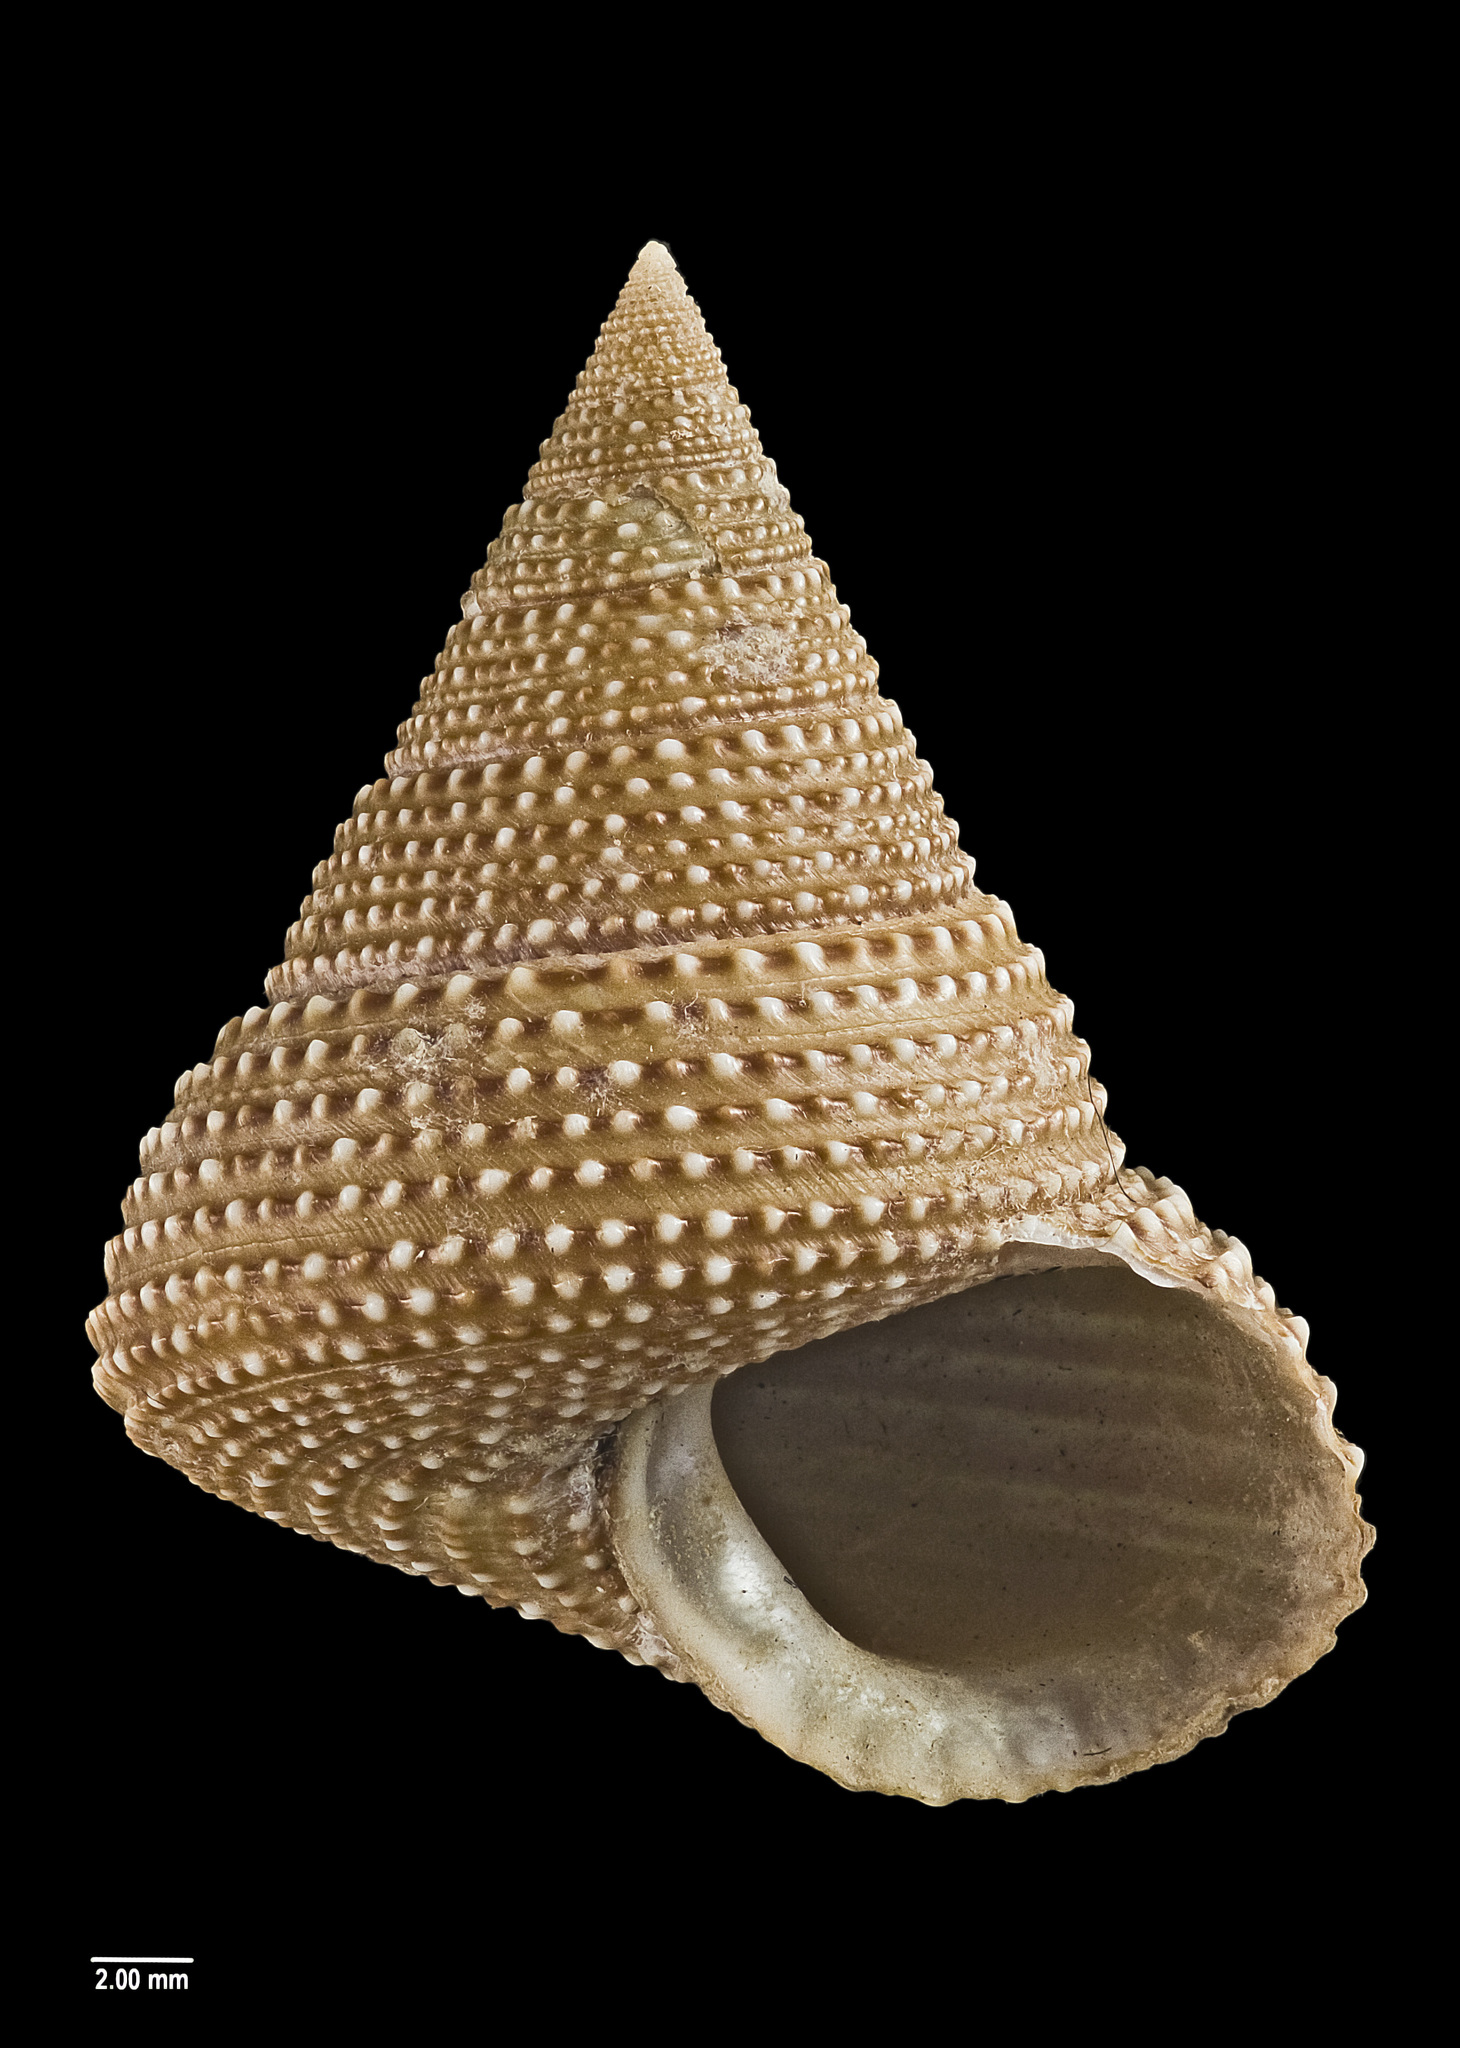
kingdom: Animalia
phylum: Mollusca
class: Gastropoda
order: Trochida
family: Calliostomatidae
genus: Maurea
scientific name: Maurea osbornei
